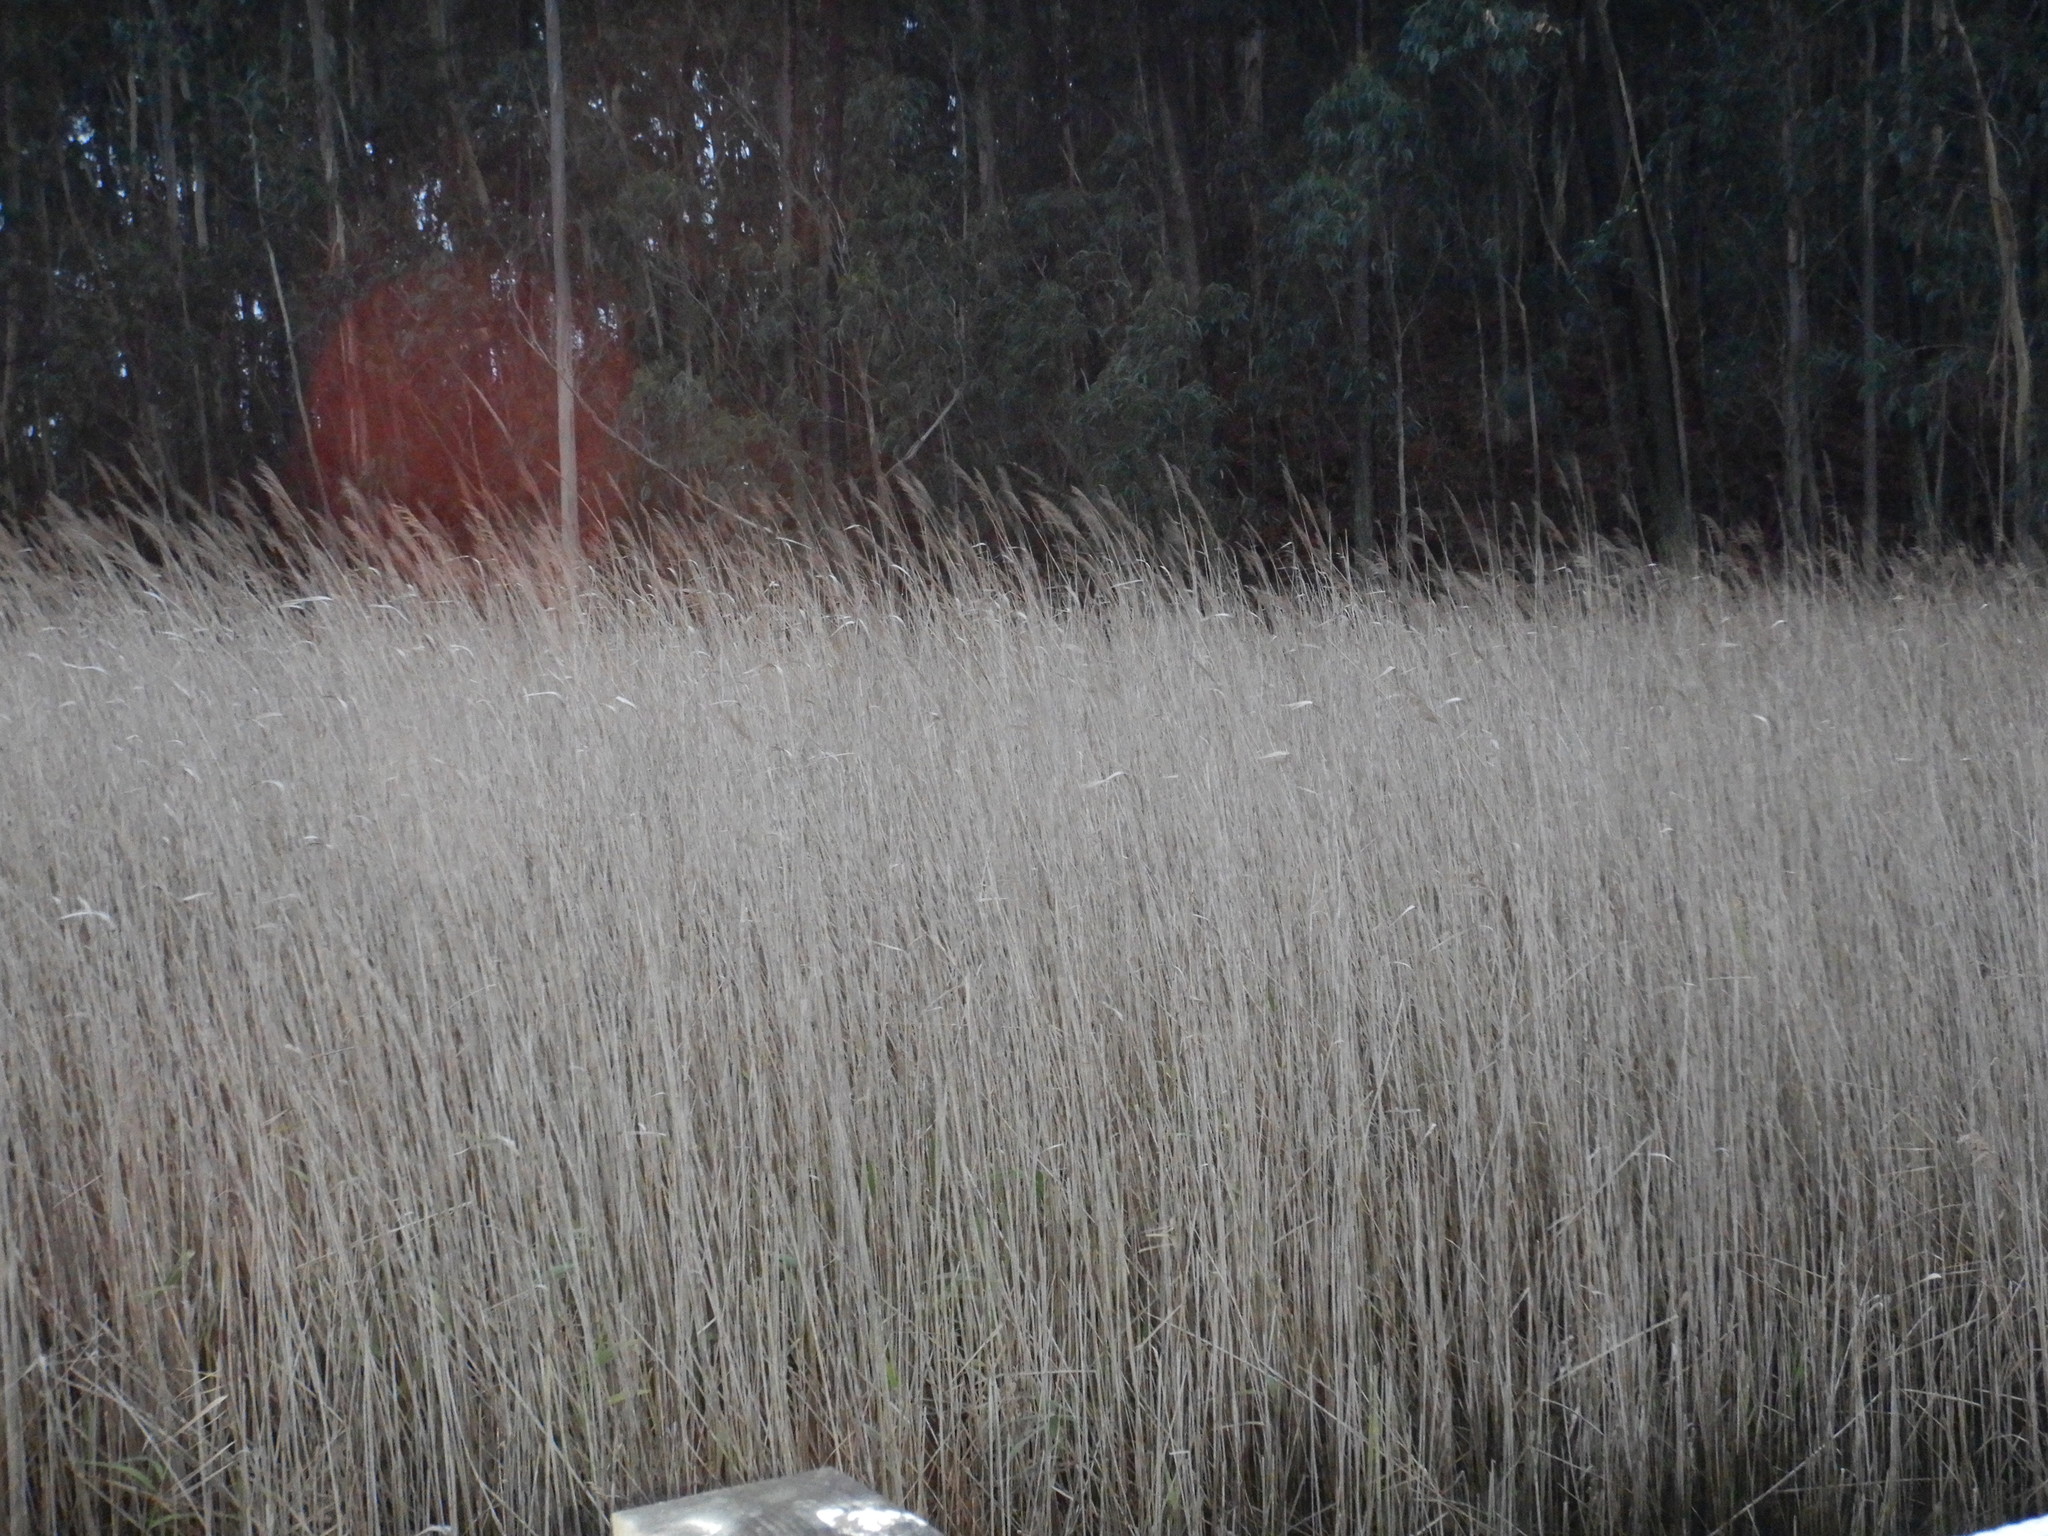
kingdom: Plantae
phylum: Tracheophyta
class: Liliopsida
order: Poales
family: Poaceae
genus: Phragmites
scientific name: Phragmites australis
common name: Common reed
